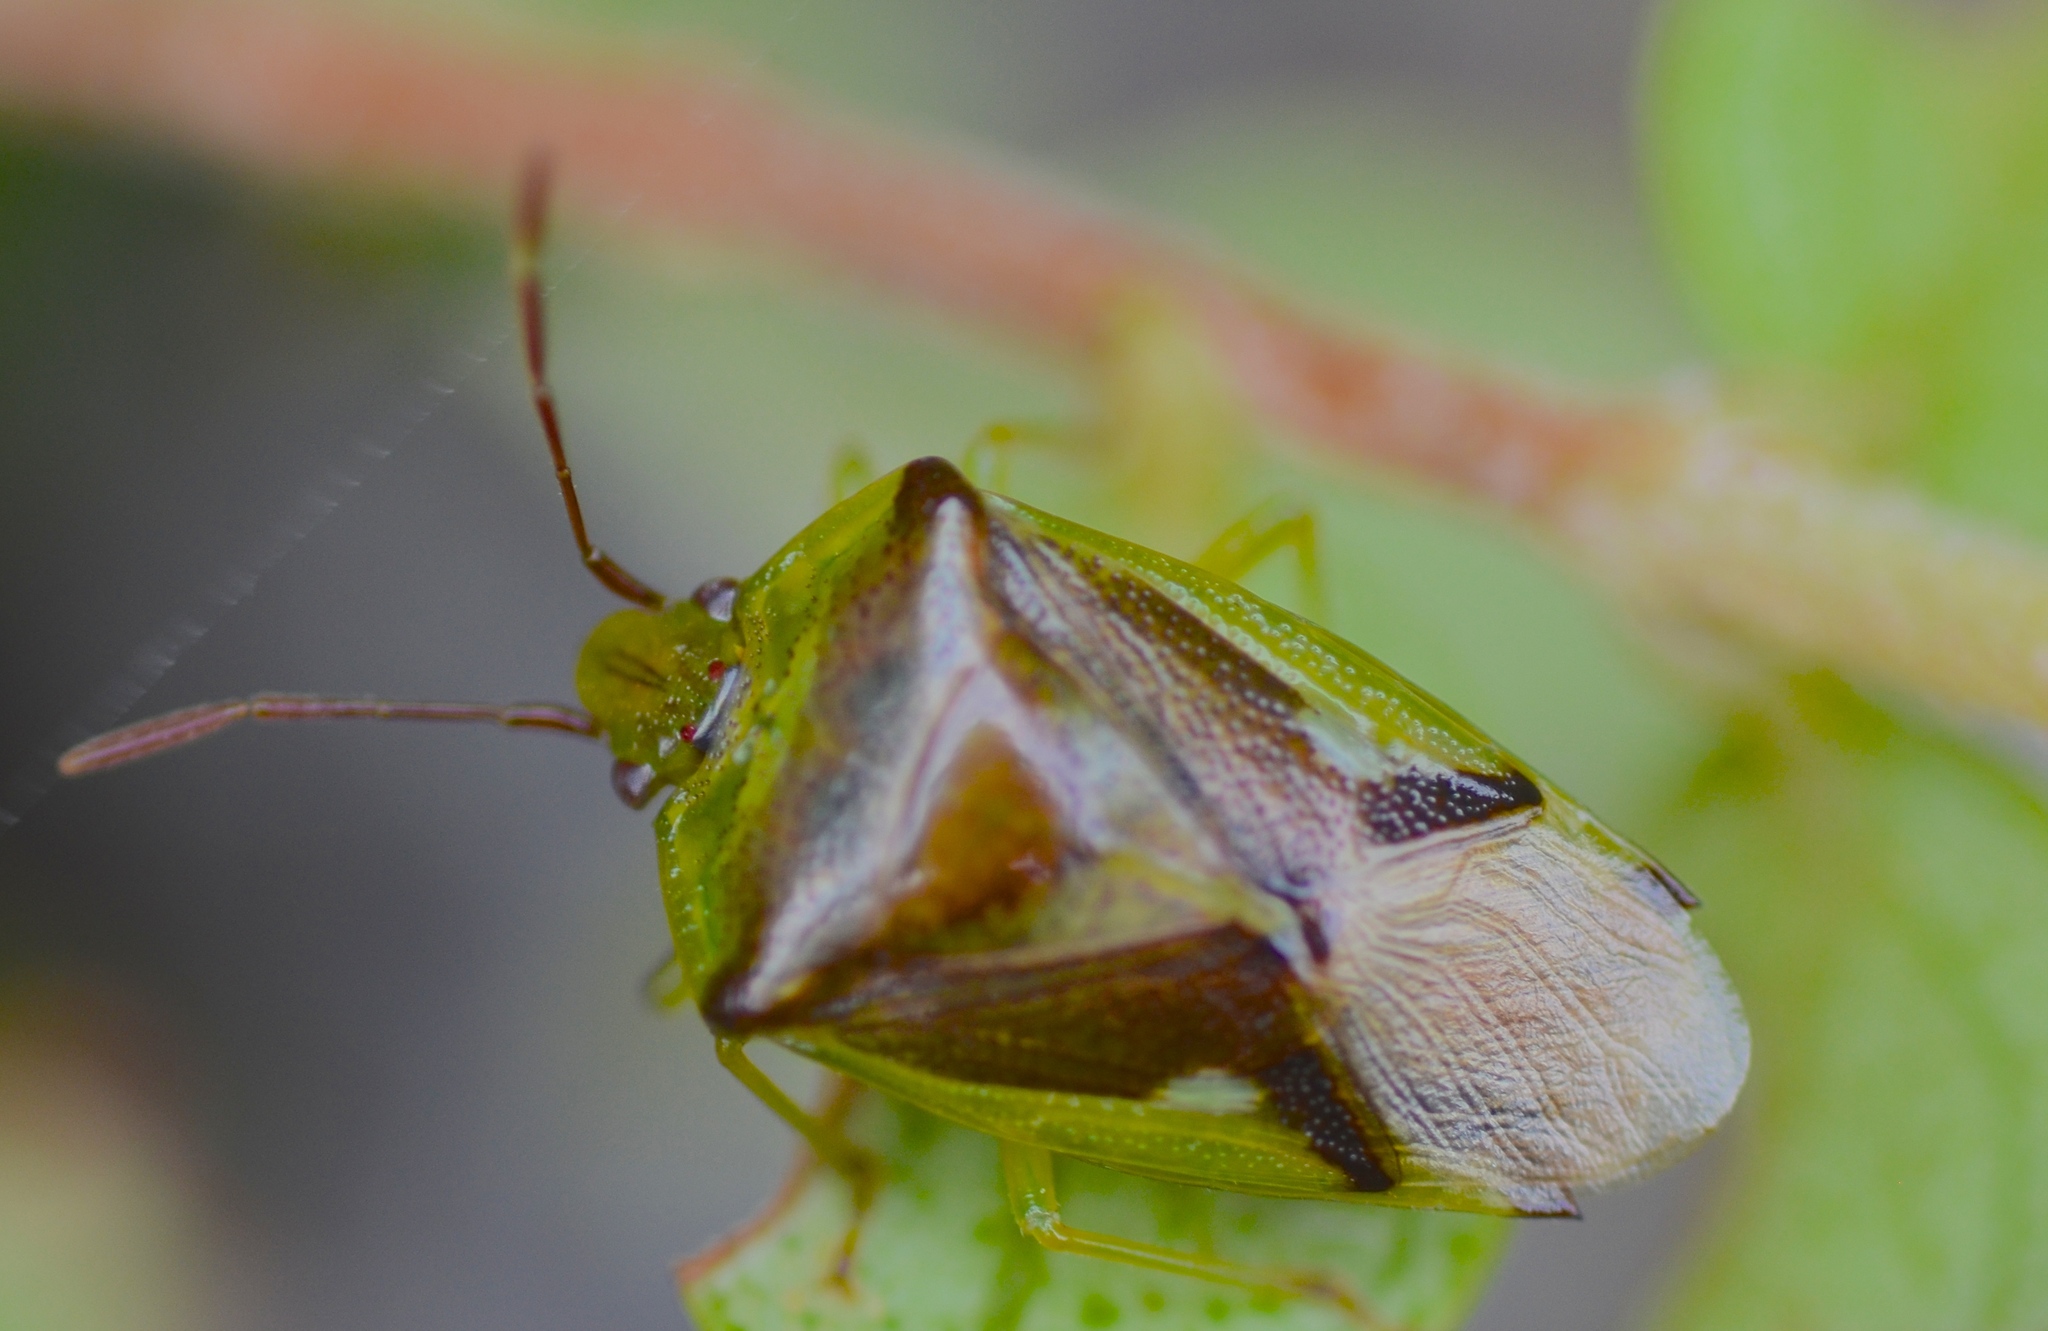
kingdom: Animalia
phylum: Arthropoda
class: Insecta
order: Hemiptera
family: Acanthosomatidae
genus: Oncacontias
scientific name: Oncacontias vittatus
